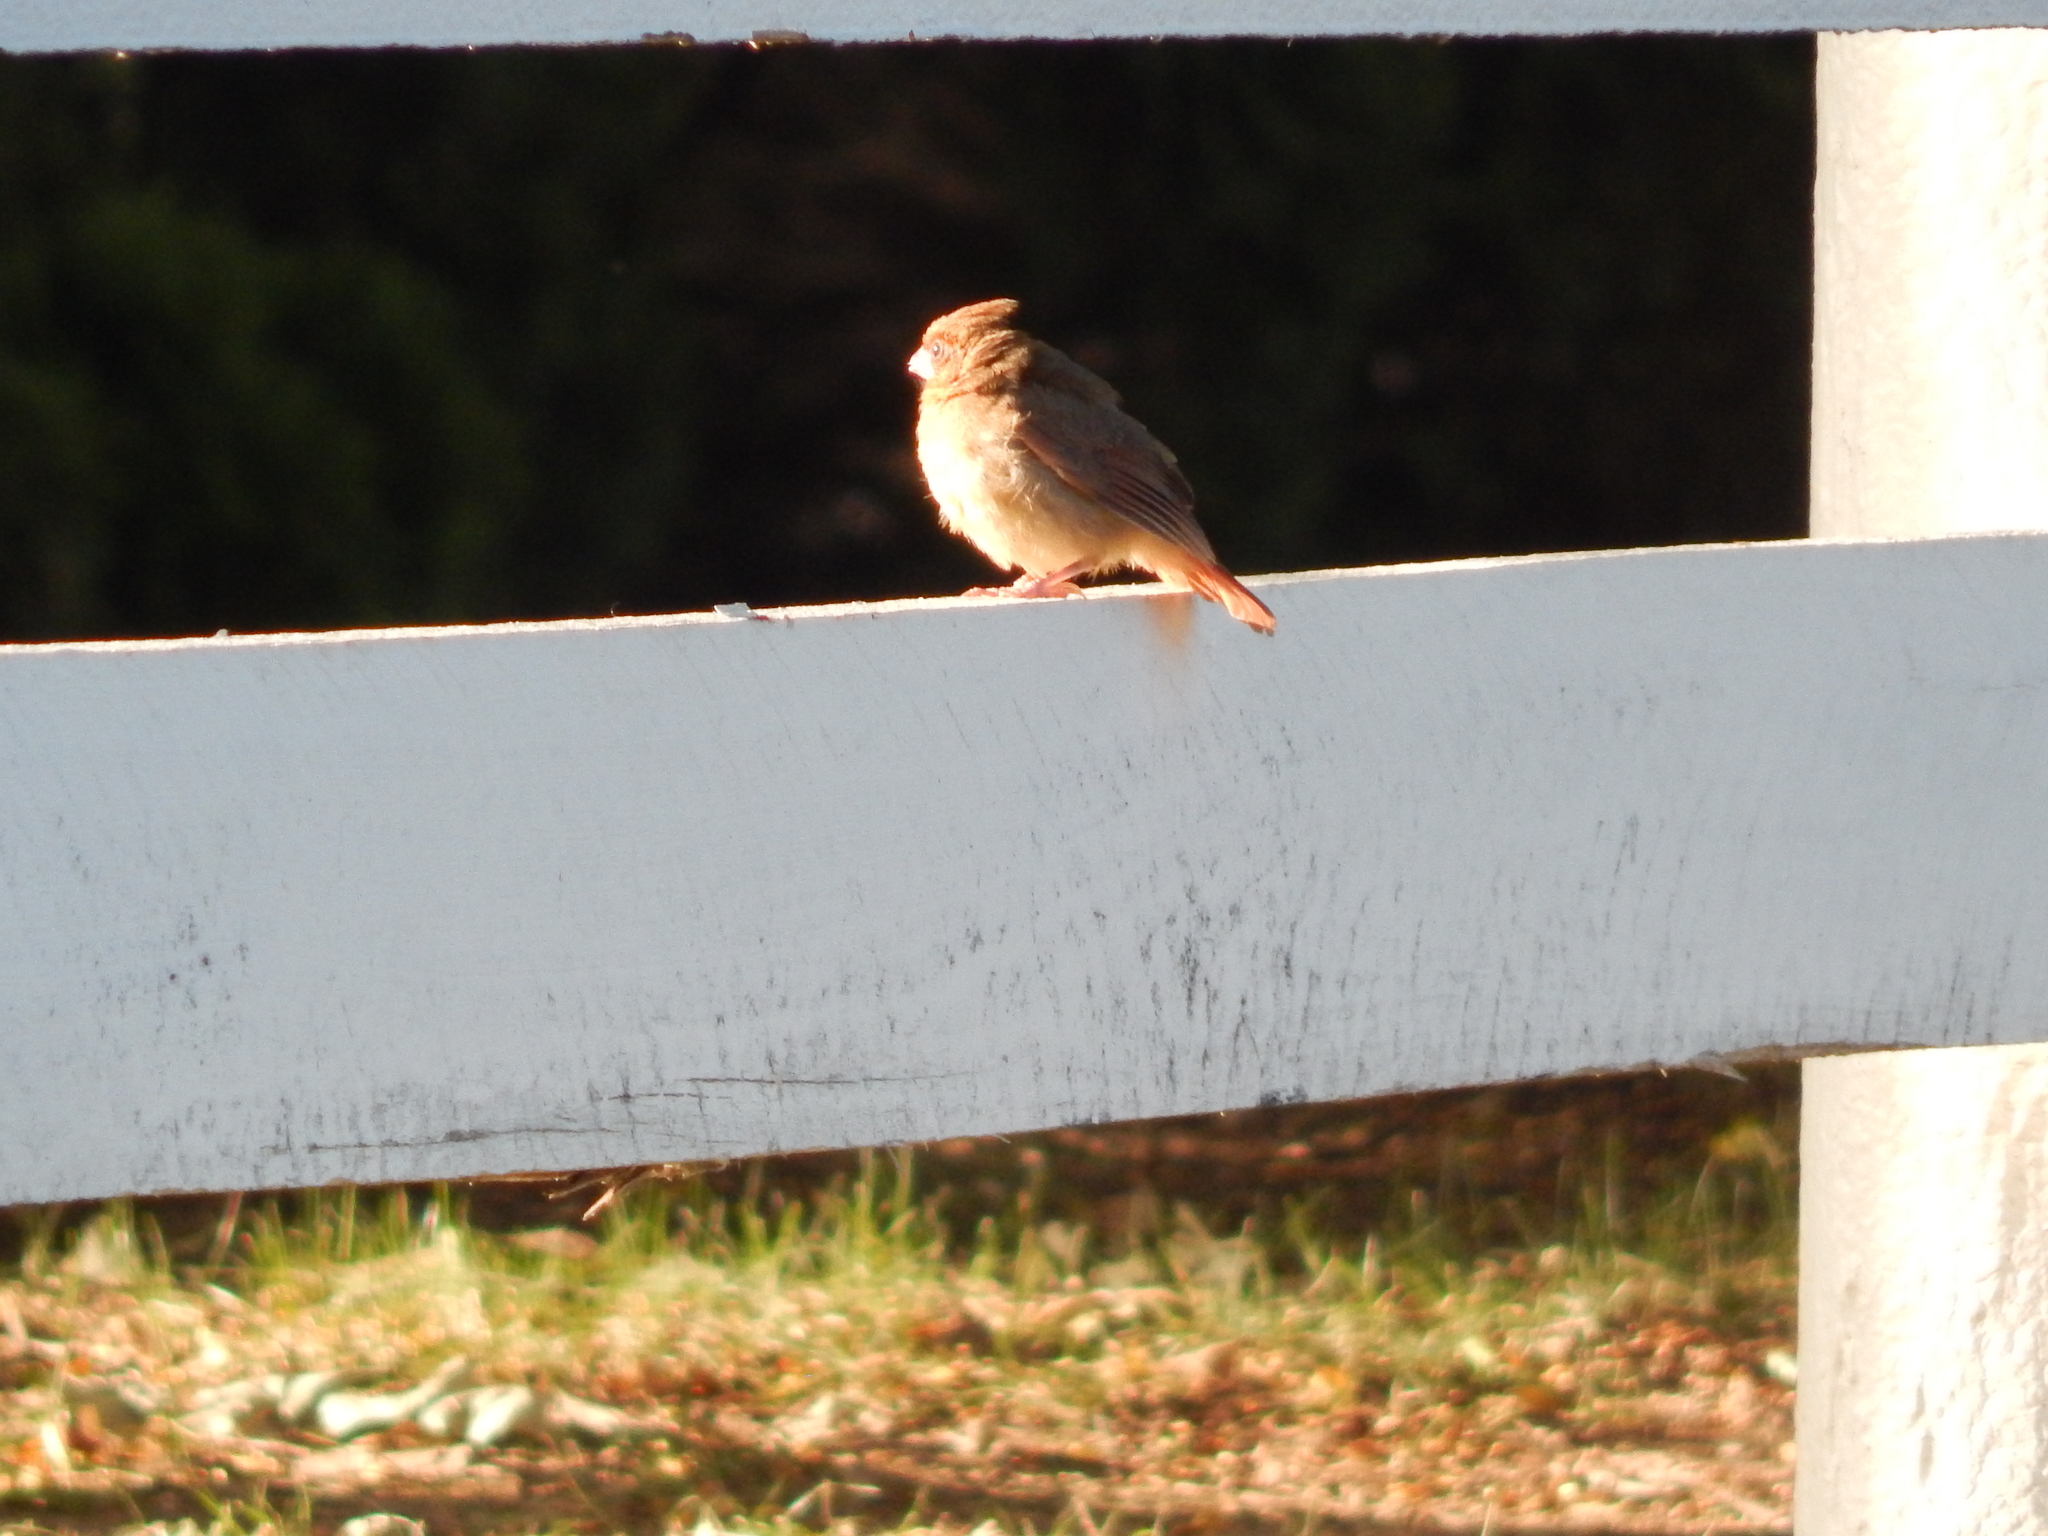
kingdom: Animalia
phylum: Chordata
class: Aves
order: Passeriformes
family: Cardinalidae
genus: Cardinalis
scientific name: Cardinalis cardinalis
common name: Northern cardinal
